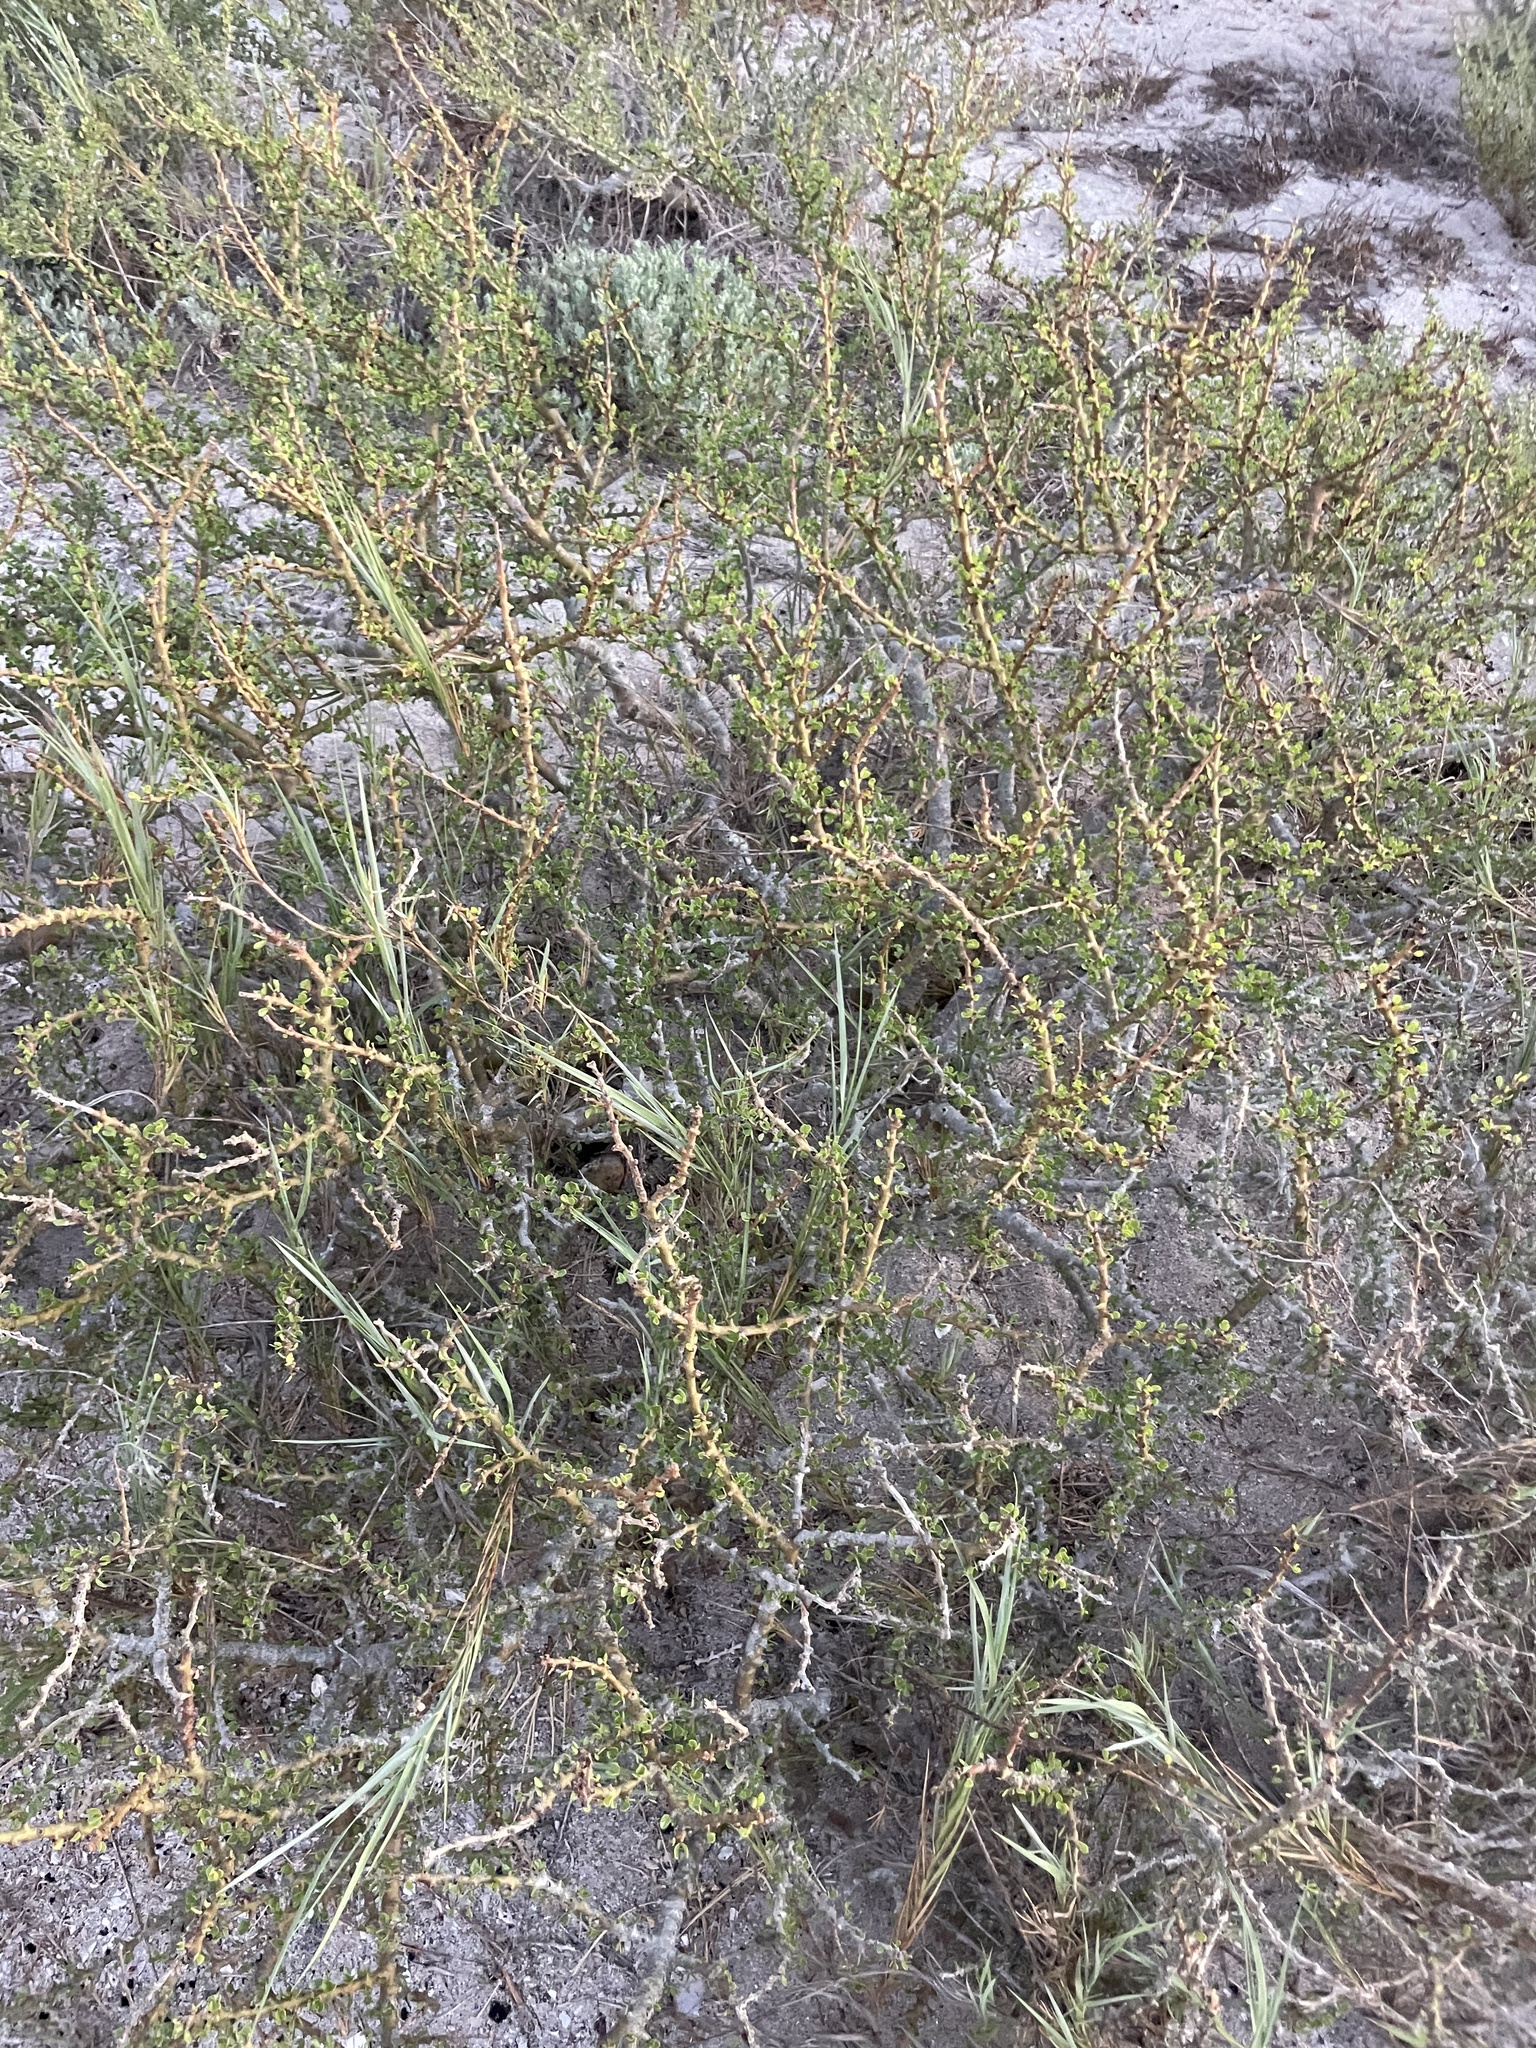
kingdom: Plantae
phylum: Tracheophyta
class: Magnoliopsida
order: Malpighiales
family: Euphorbiaceae
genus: Jatropha
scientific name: Jatropha cuneata
